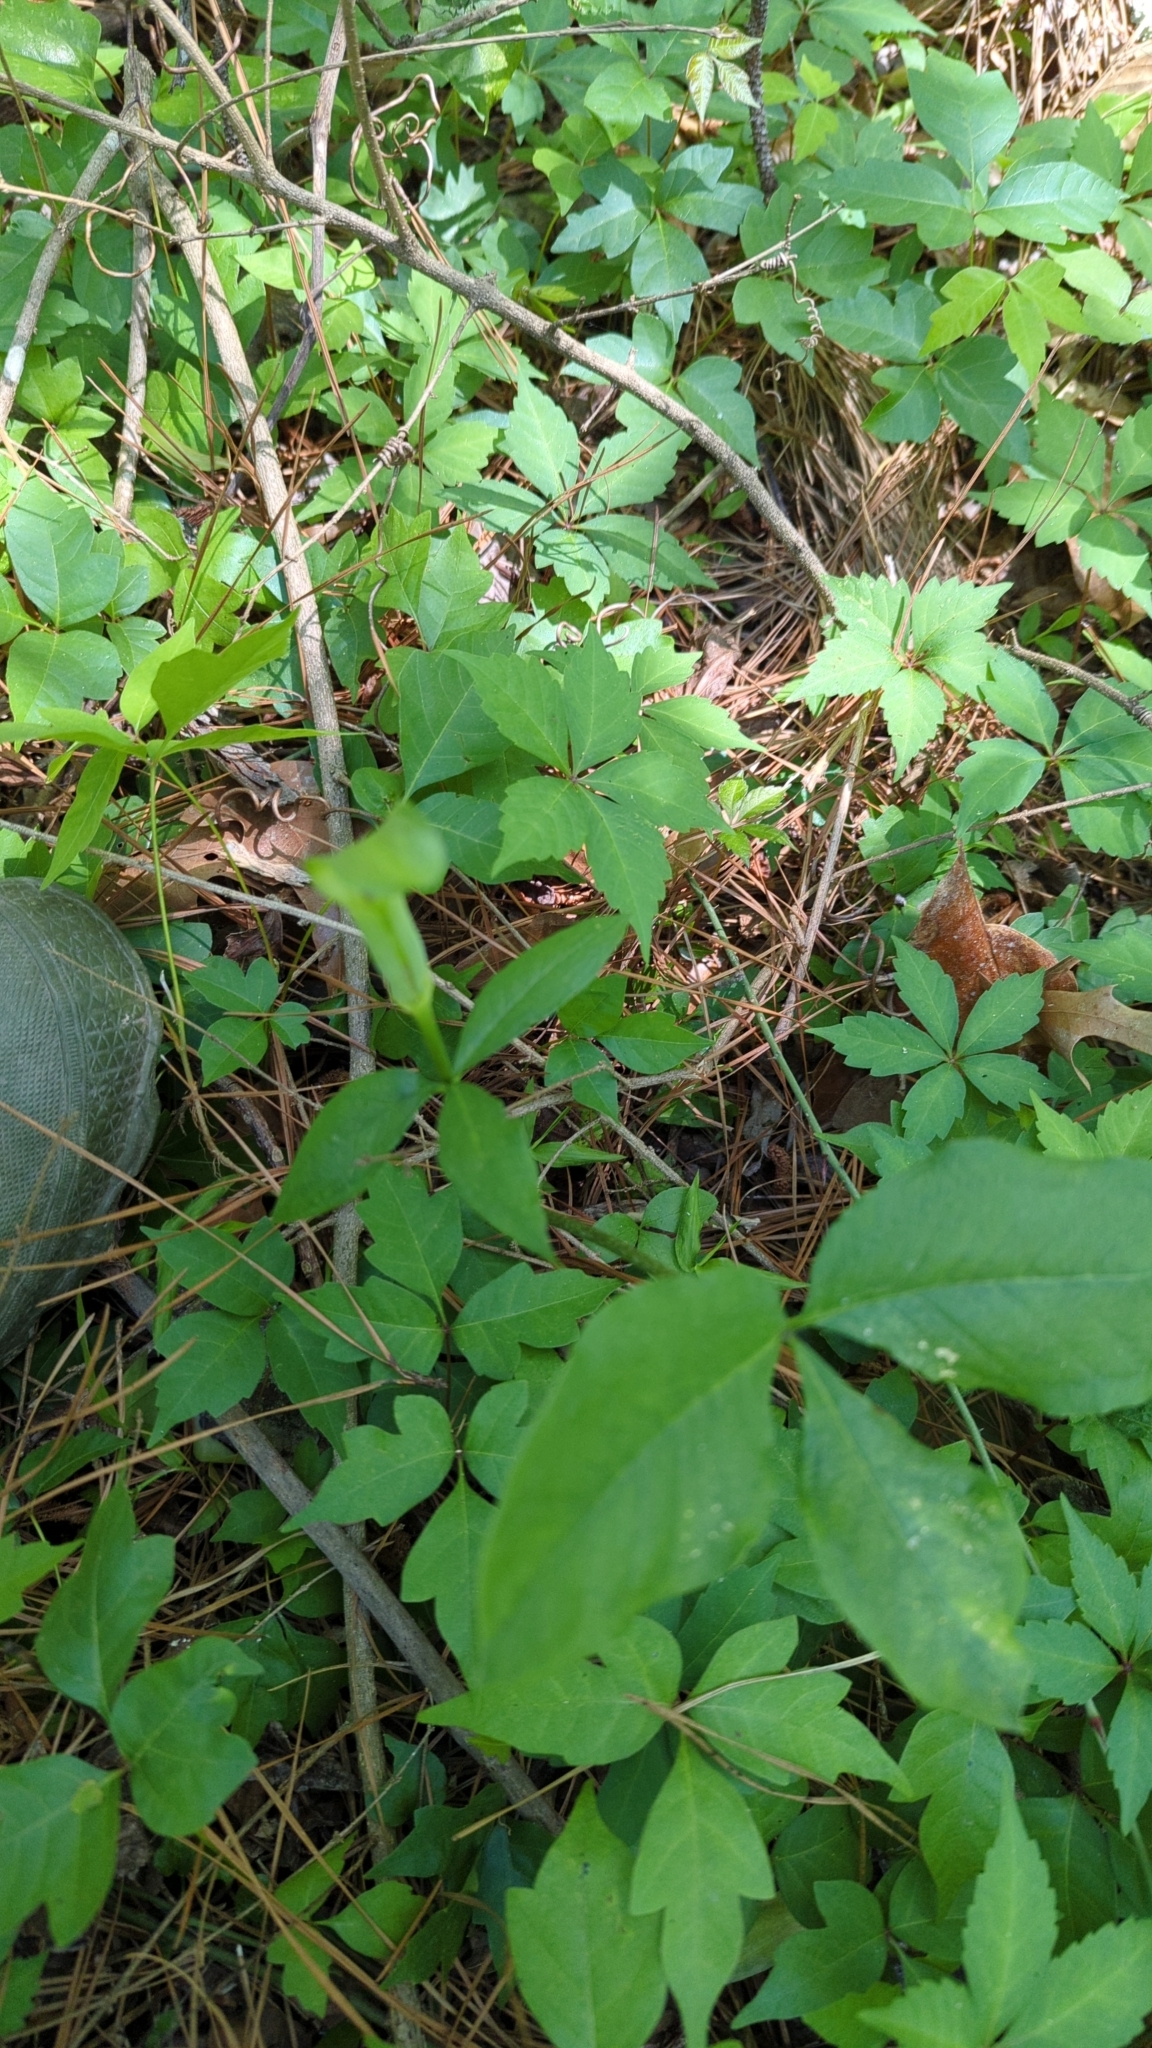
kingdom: Plantae
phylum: Tracheophyta
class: Liliopsida
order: Alismatales
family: Araceae
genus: Arisaema
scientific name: Arisaema triphyllum
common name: Jack-in-the-pulpit
